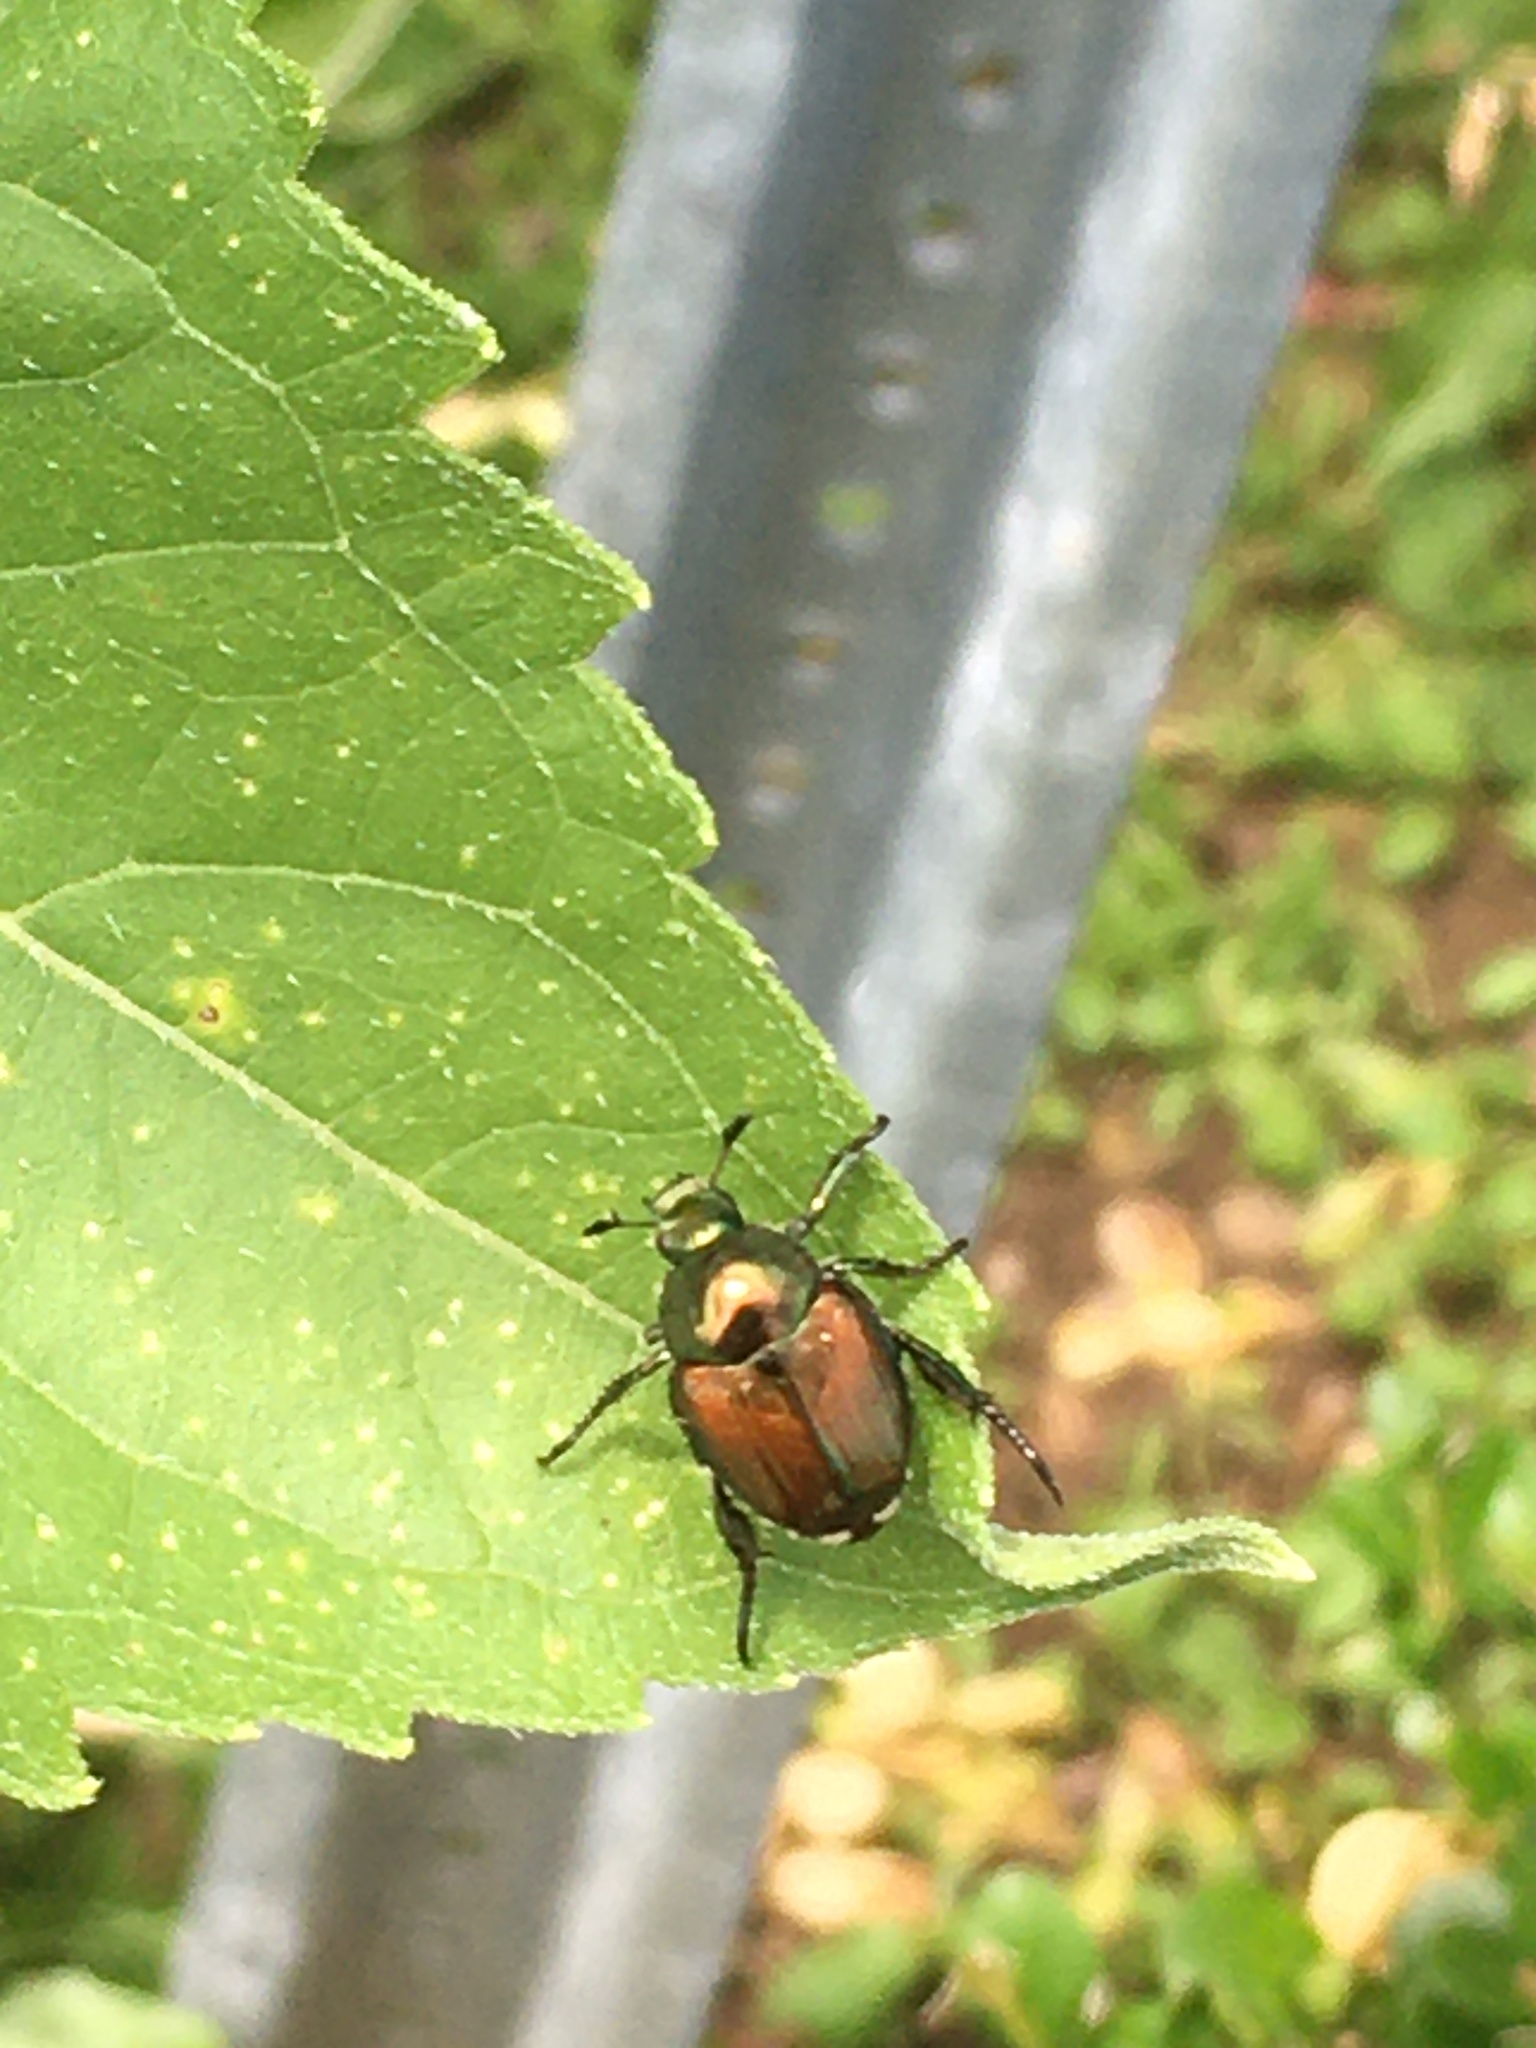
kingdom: Animalia
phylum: Arthropoda
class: Insecta
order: Coleoptera
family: Scarabaeidae
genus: Popillia
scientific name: Popillia japonica
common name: Japanese beetle
